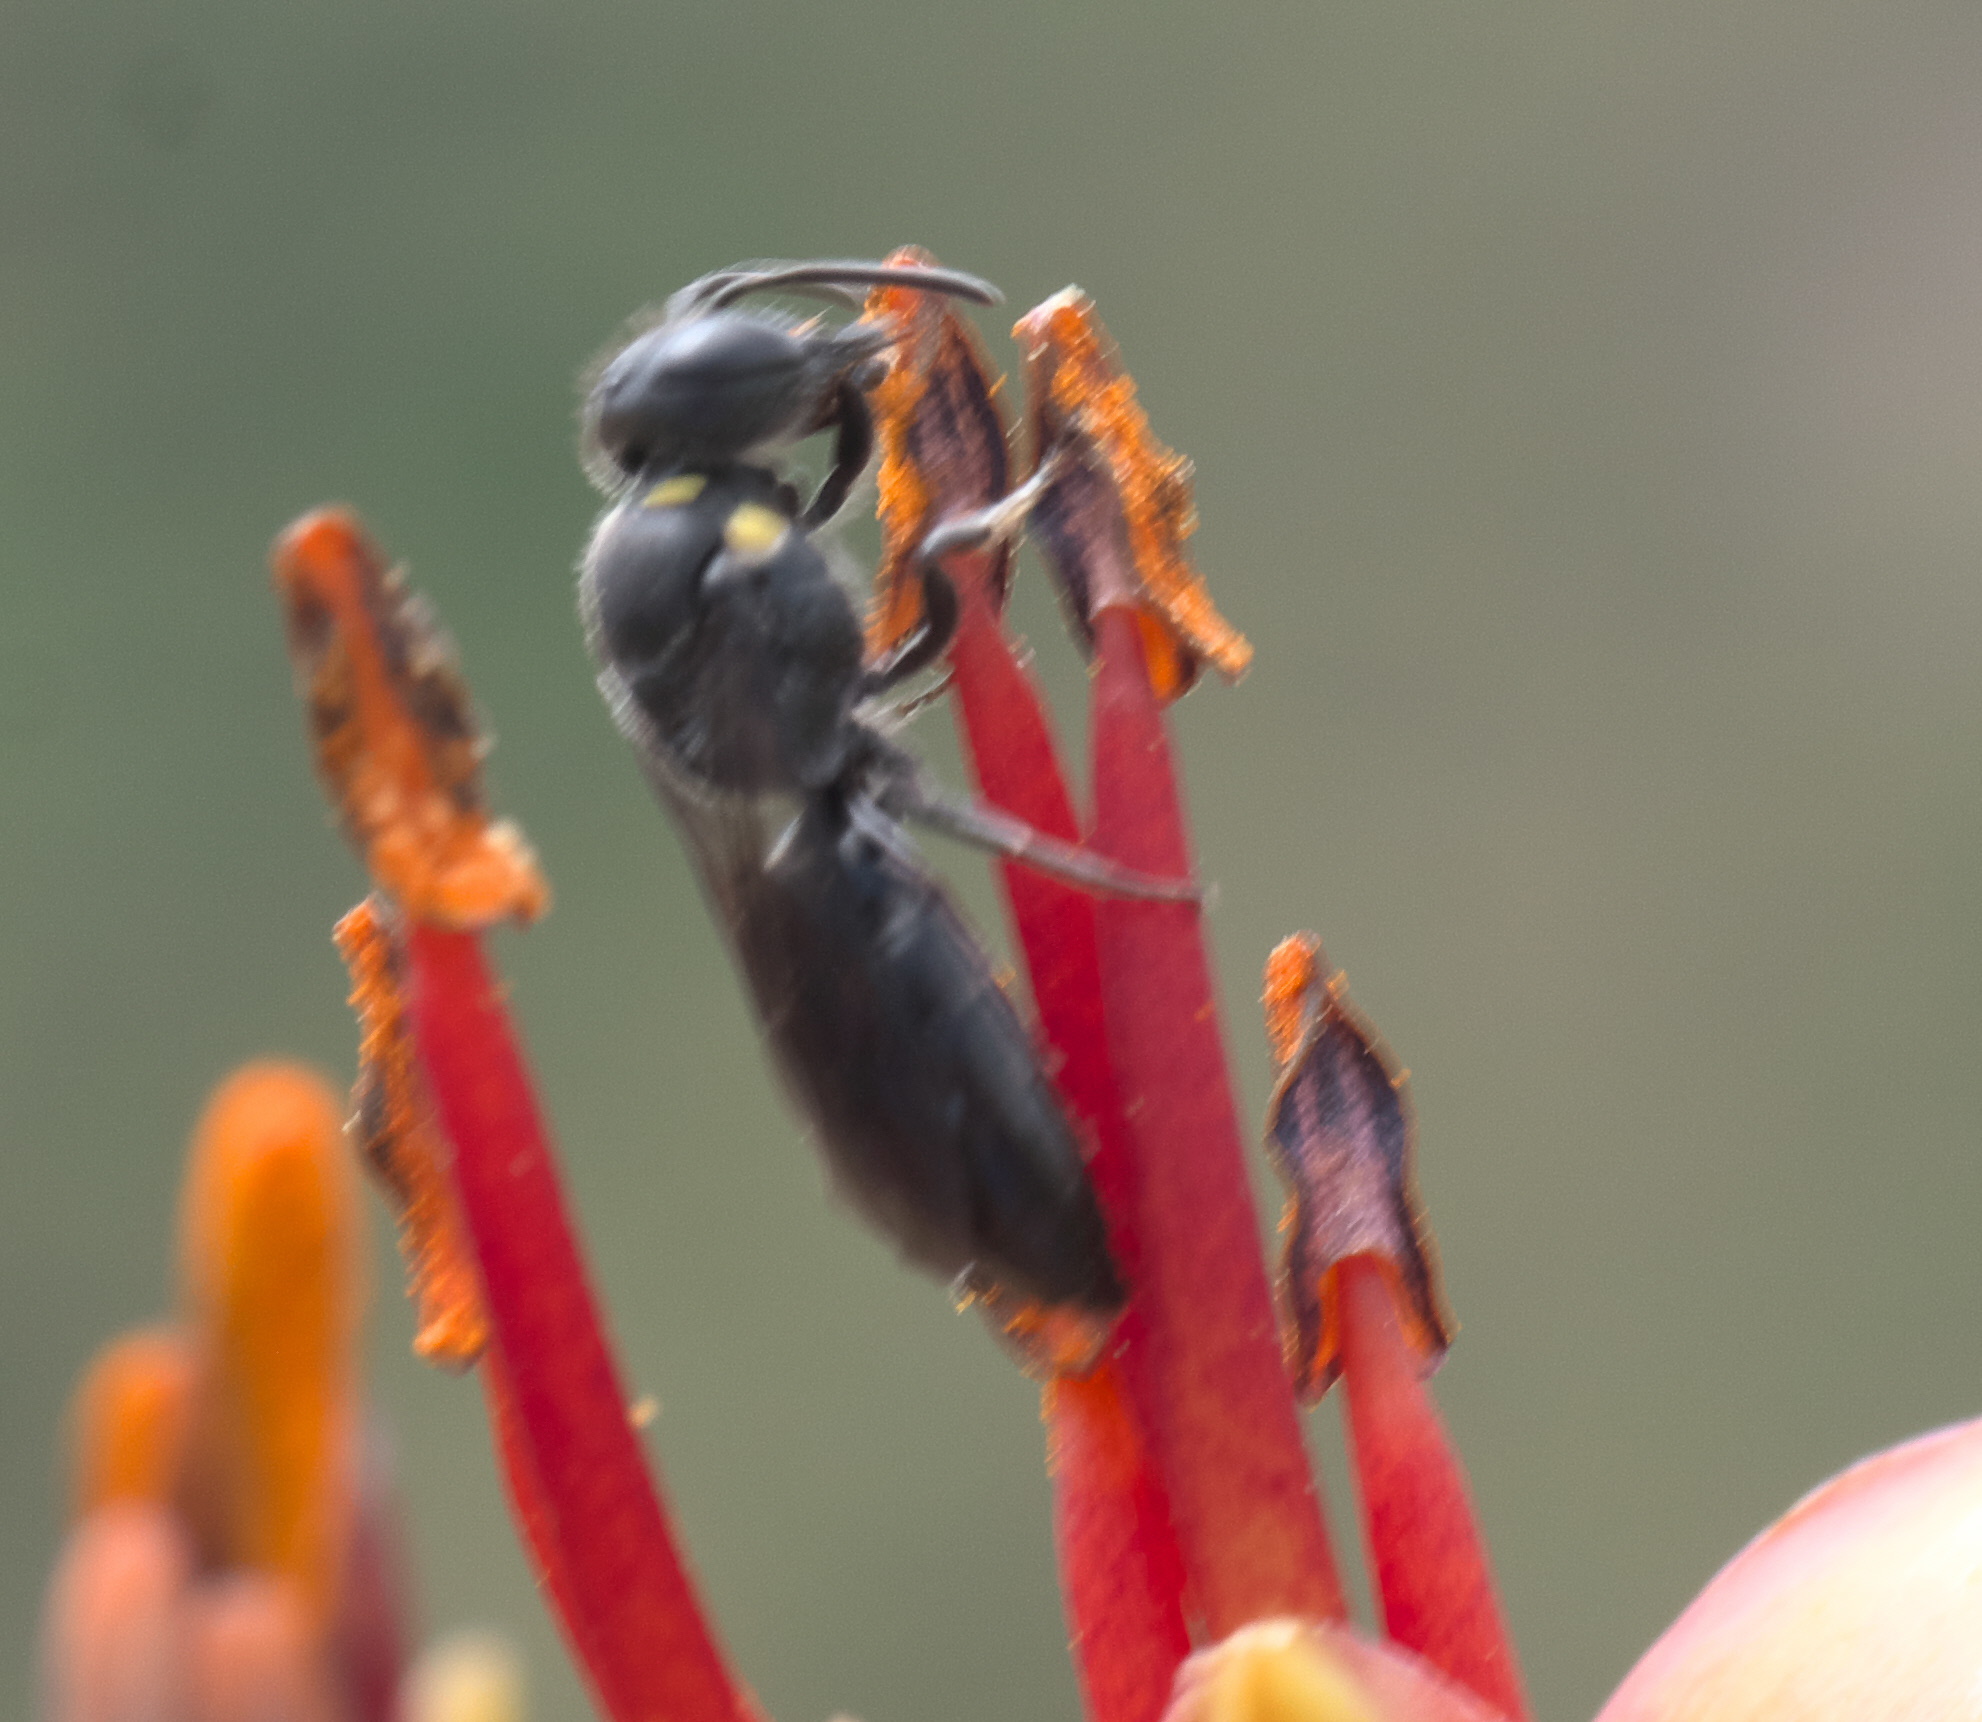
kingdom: Animalia
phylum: Arthropoda
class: Insecta
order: Hymenoptera
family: Colletidae
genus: Hylaeus
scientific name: Hylaeus relegatus
